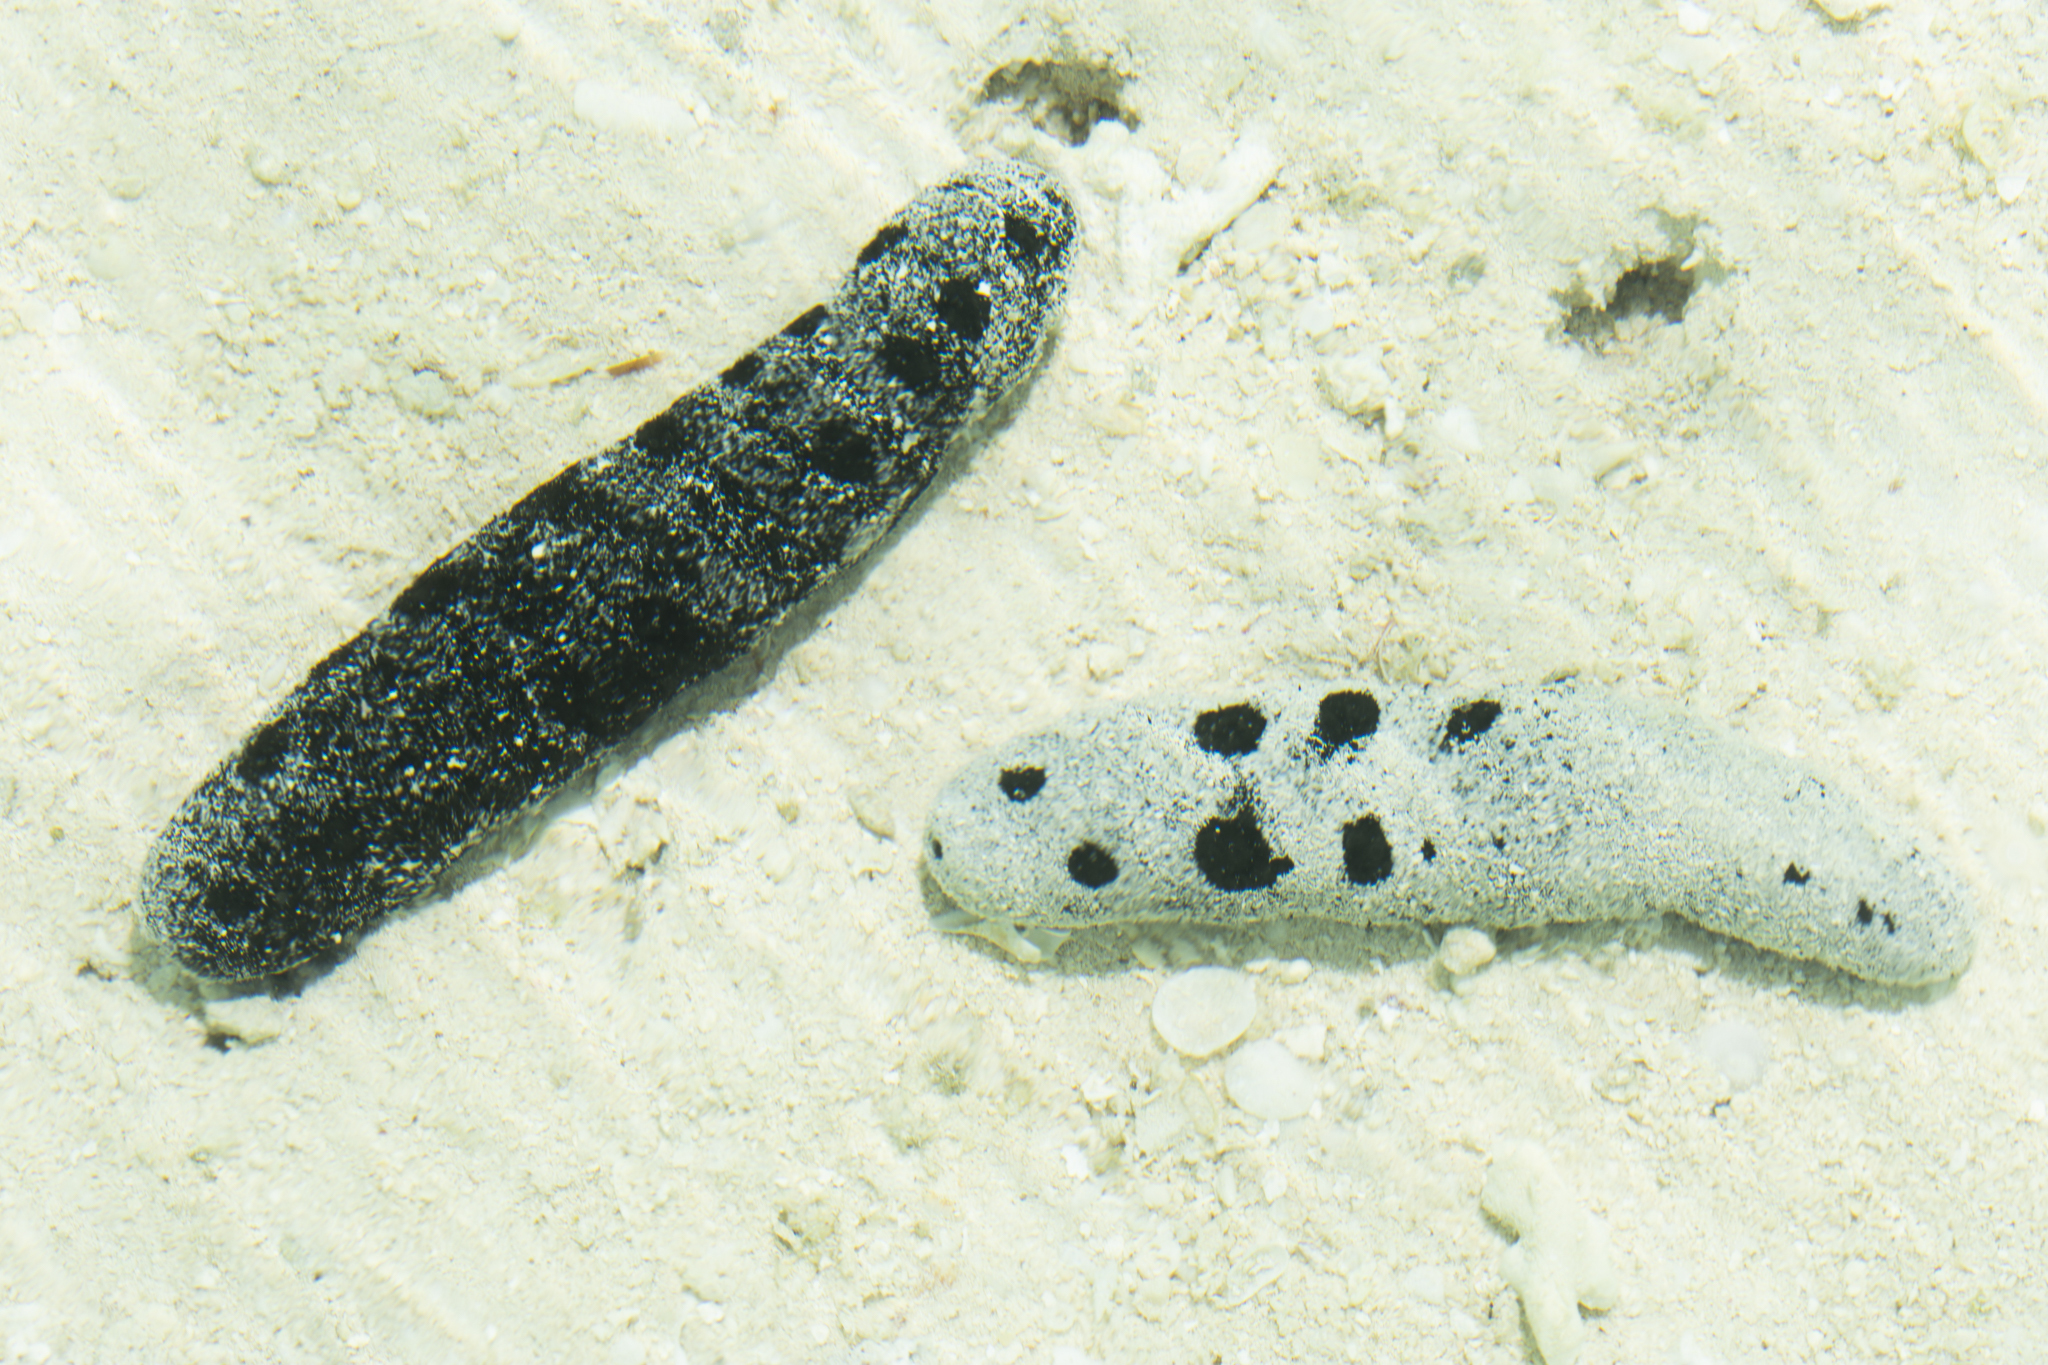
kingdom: Animalia
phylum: Echinodermata
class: Holothuroidea
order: Holothuriida
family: Holothuriidae
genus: Holothuria
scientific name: Holothuria atra
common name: Lollyfish
